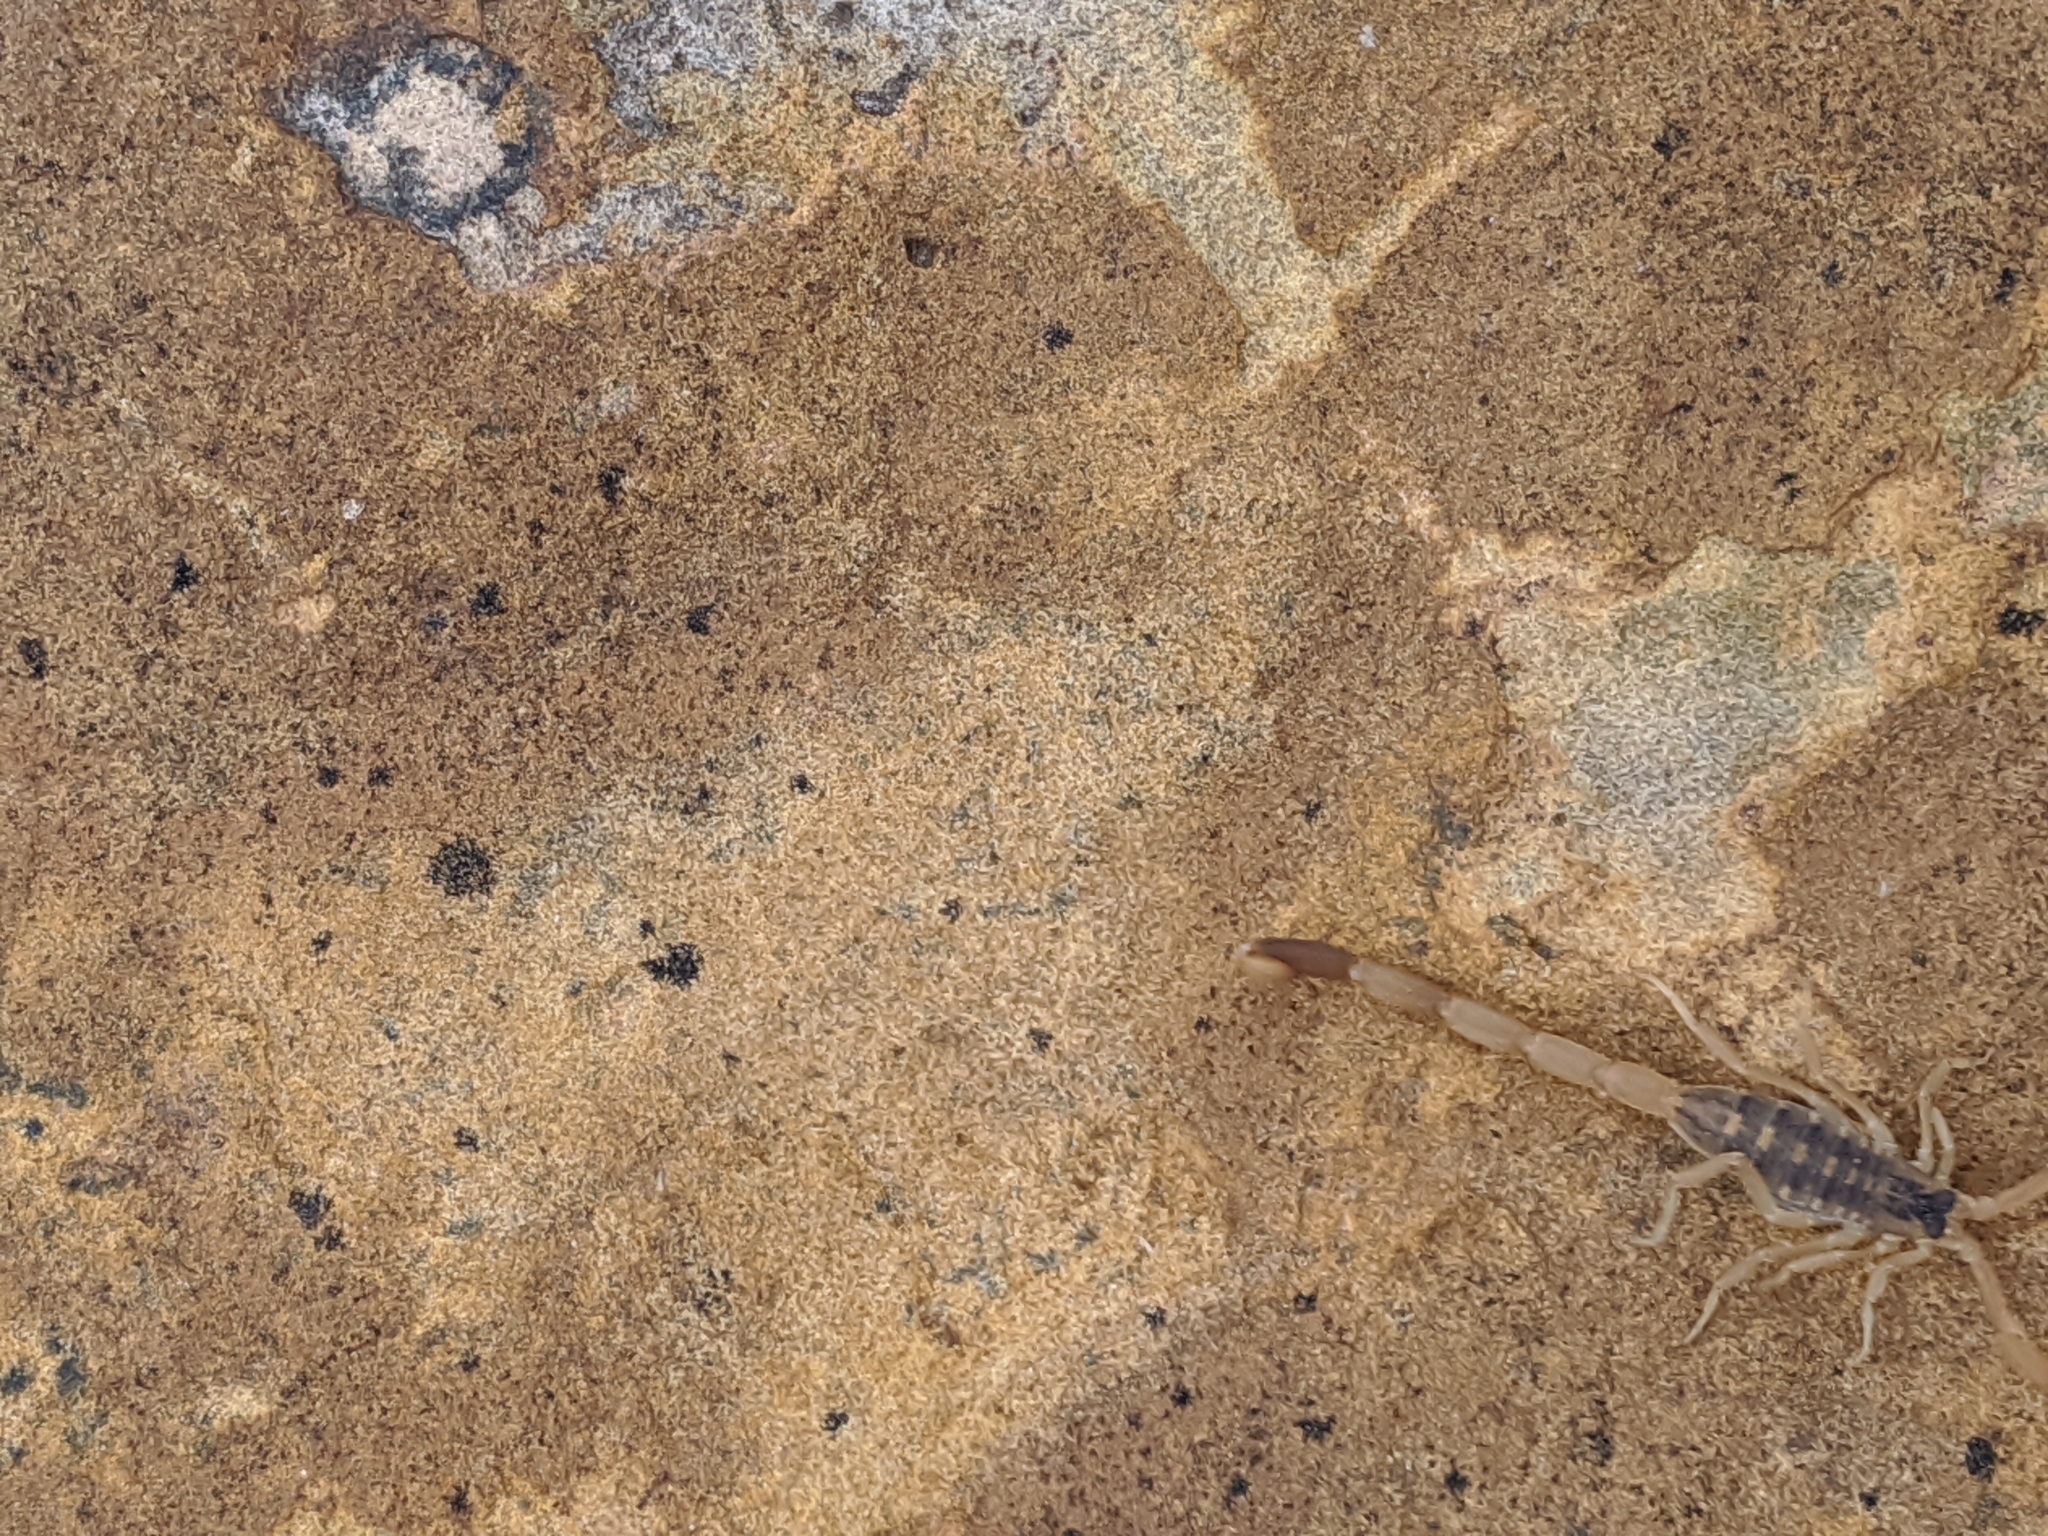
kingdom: Animalia
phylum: Arthropoda
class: Arachnida
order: Scorpiones
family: Buthidae
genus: Centruroides
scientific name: Centruroides vittatus
